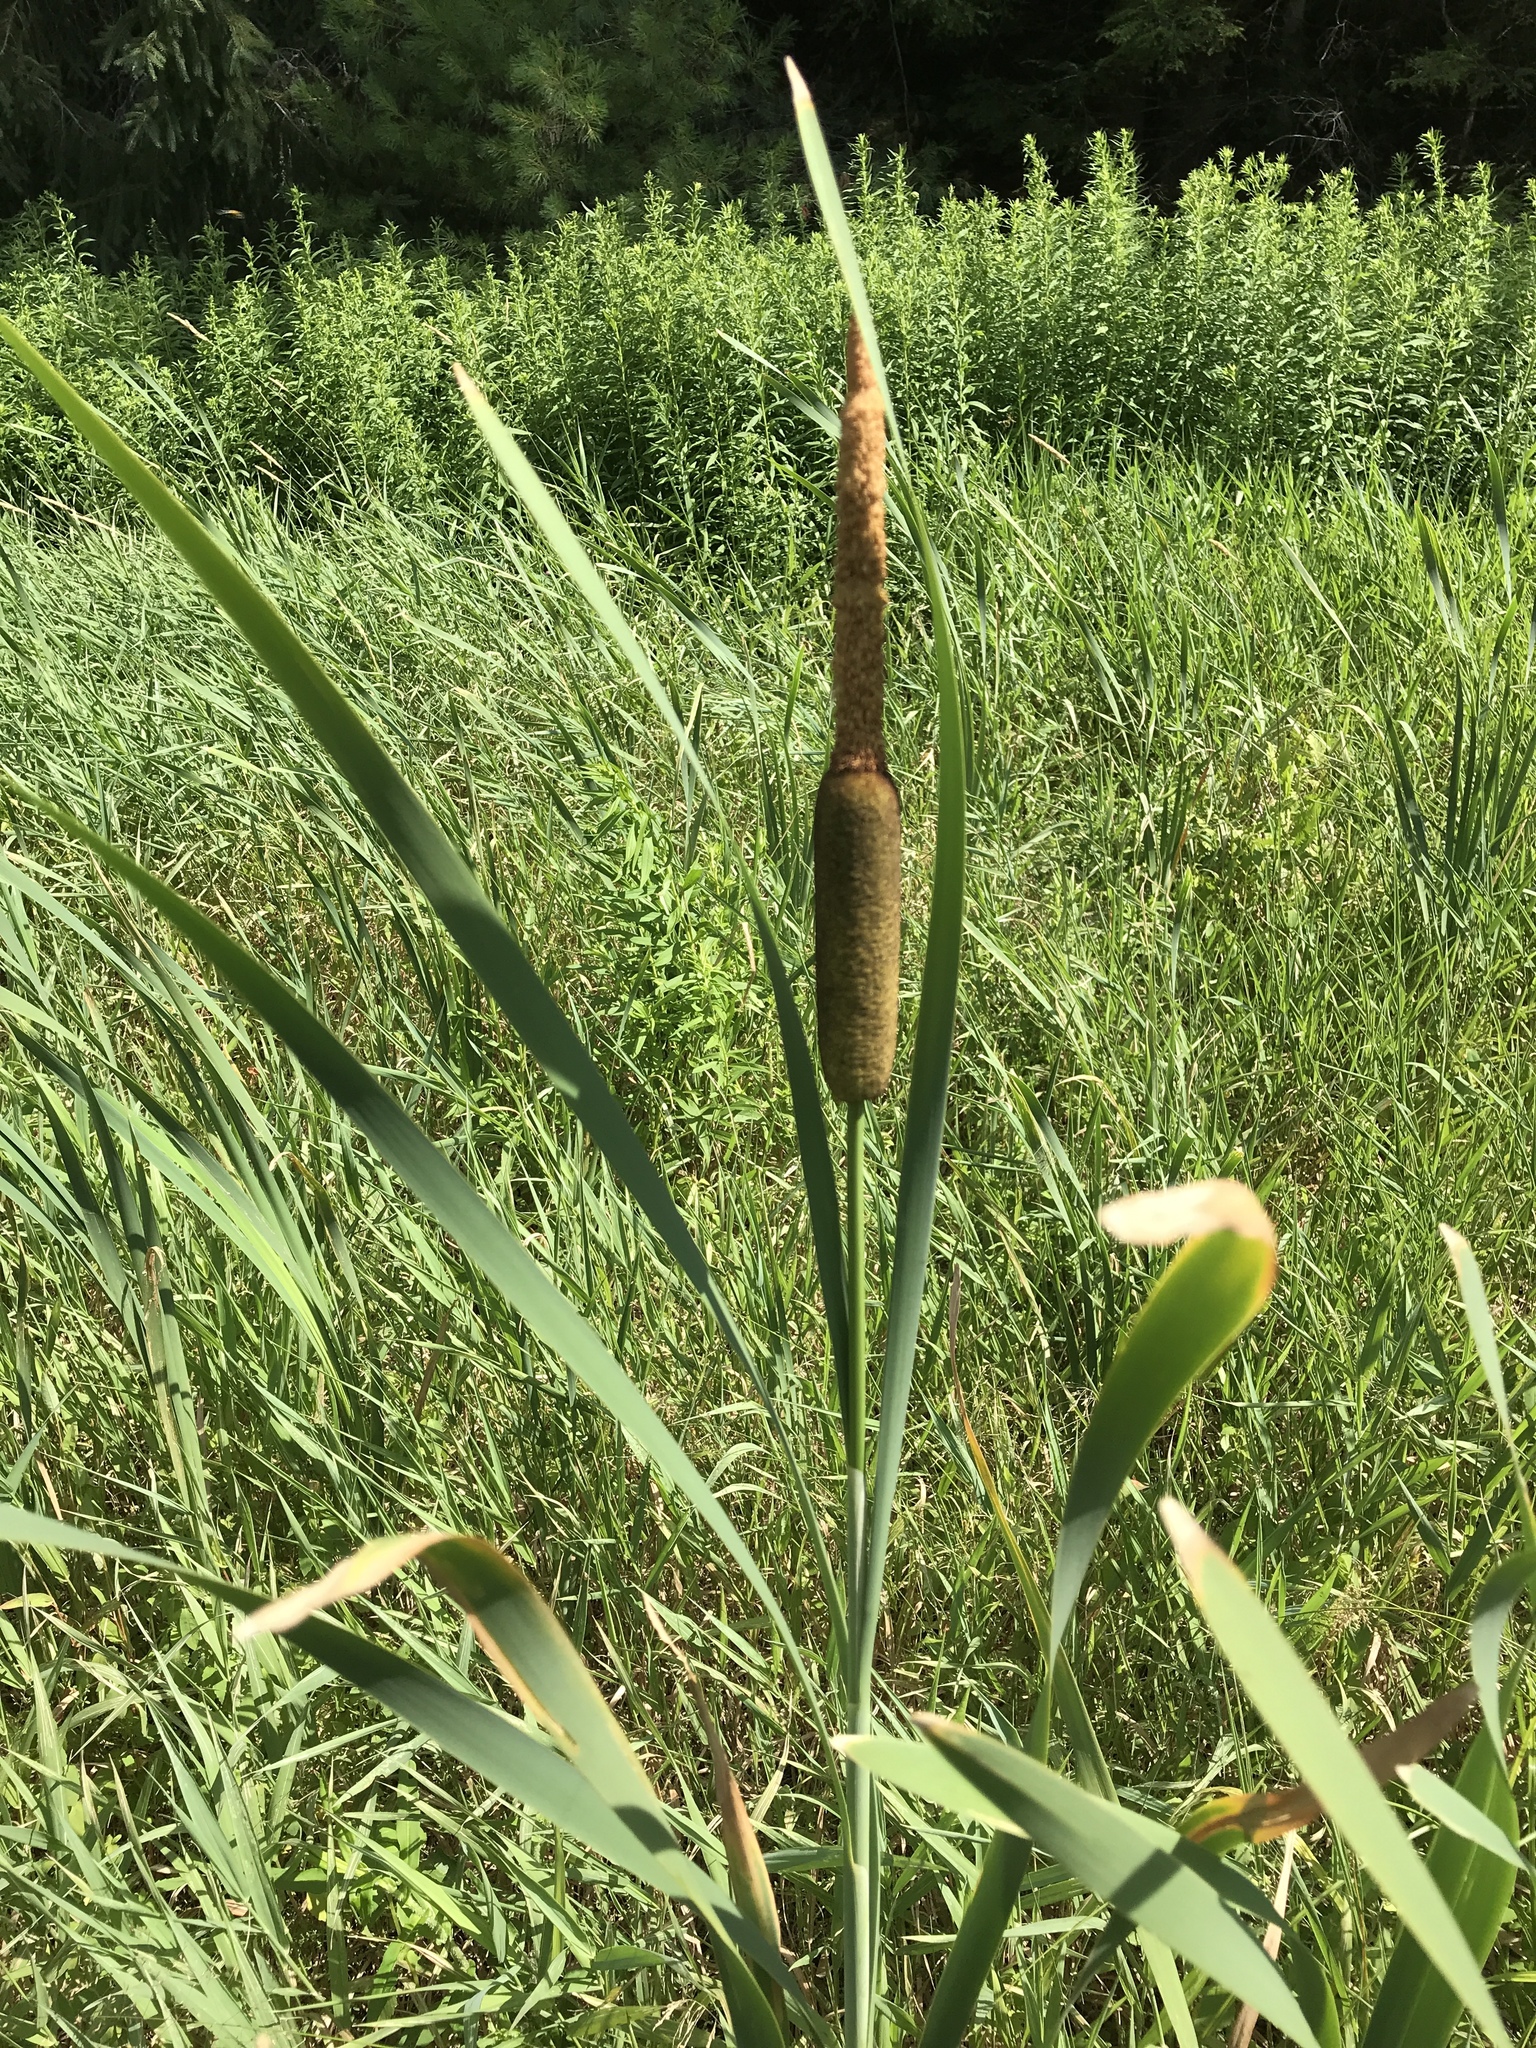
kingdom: Plantae
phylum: Tracheophyta
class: Liliopsida
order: Poales
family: Typhaceae
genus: Typha
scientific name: Typha latifolia
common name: Broadleaf cattail
